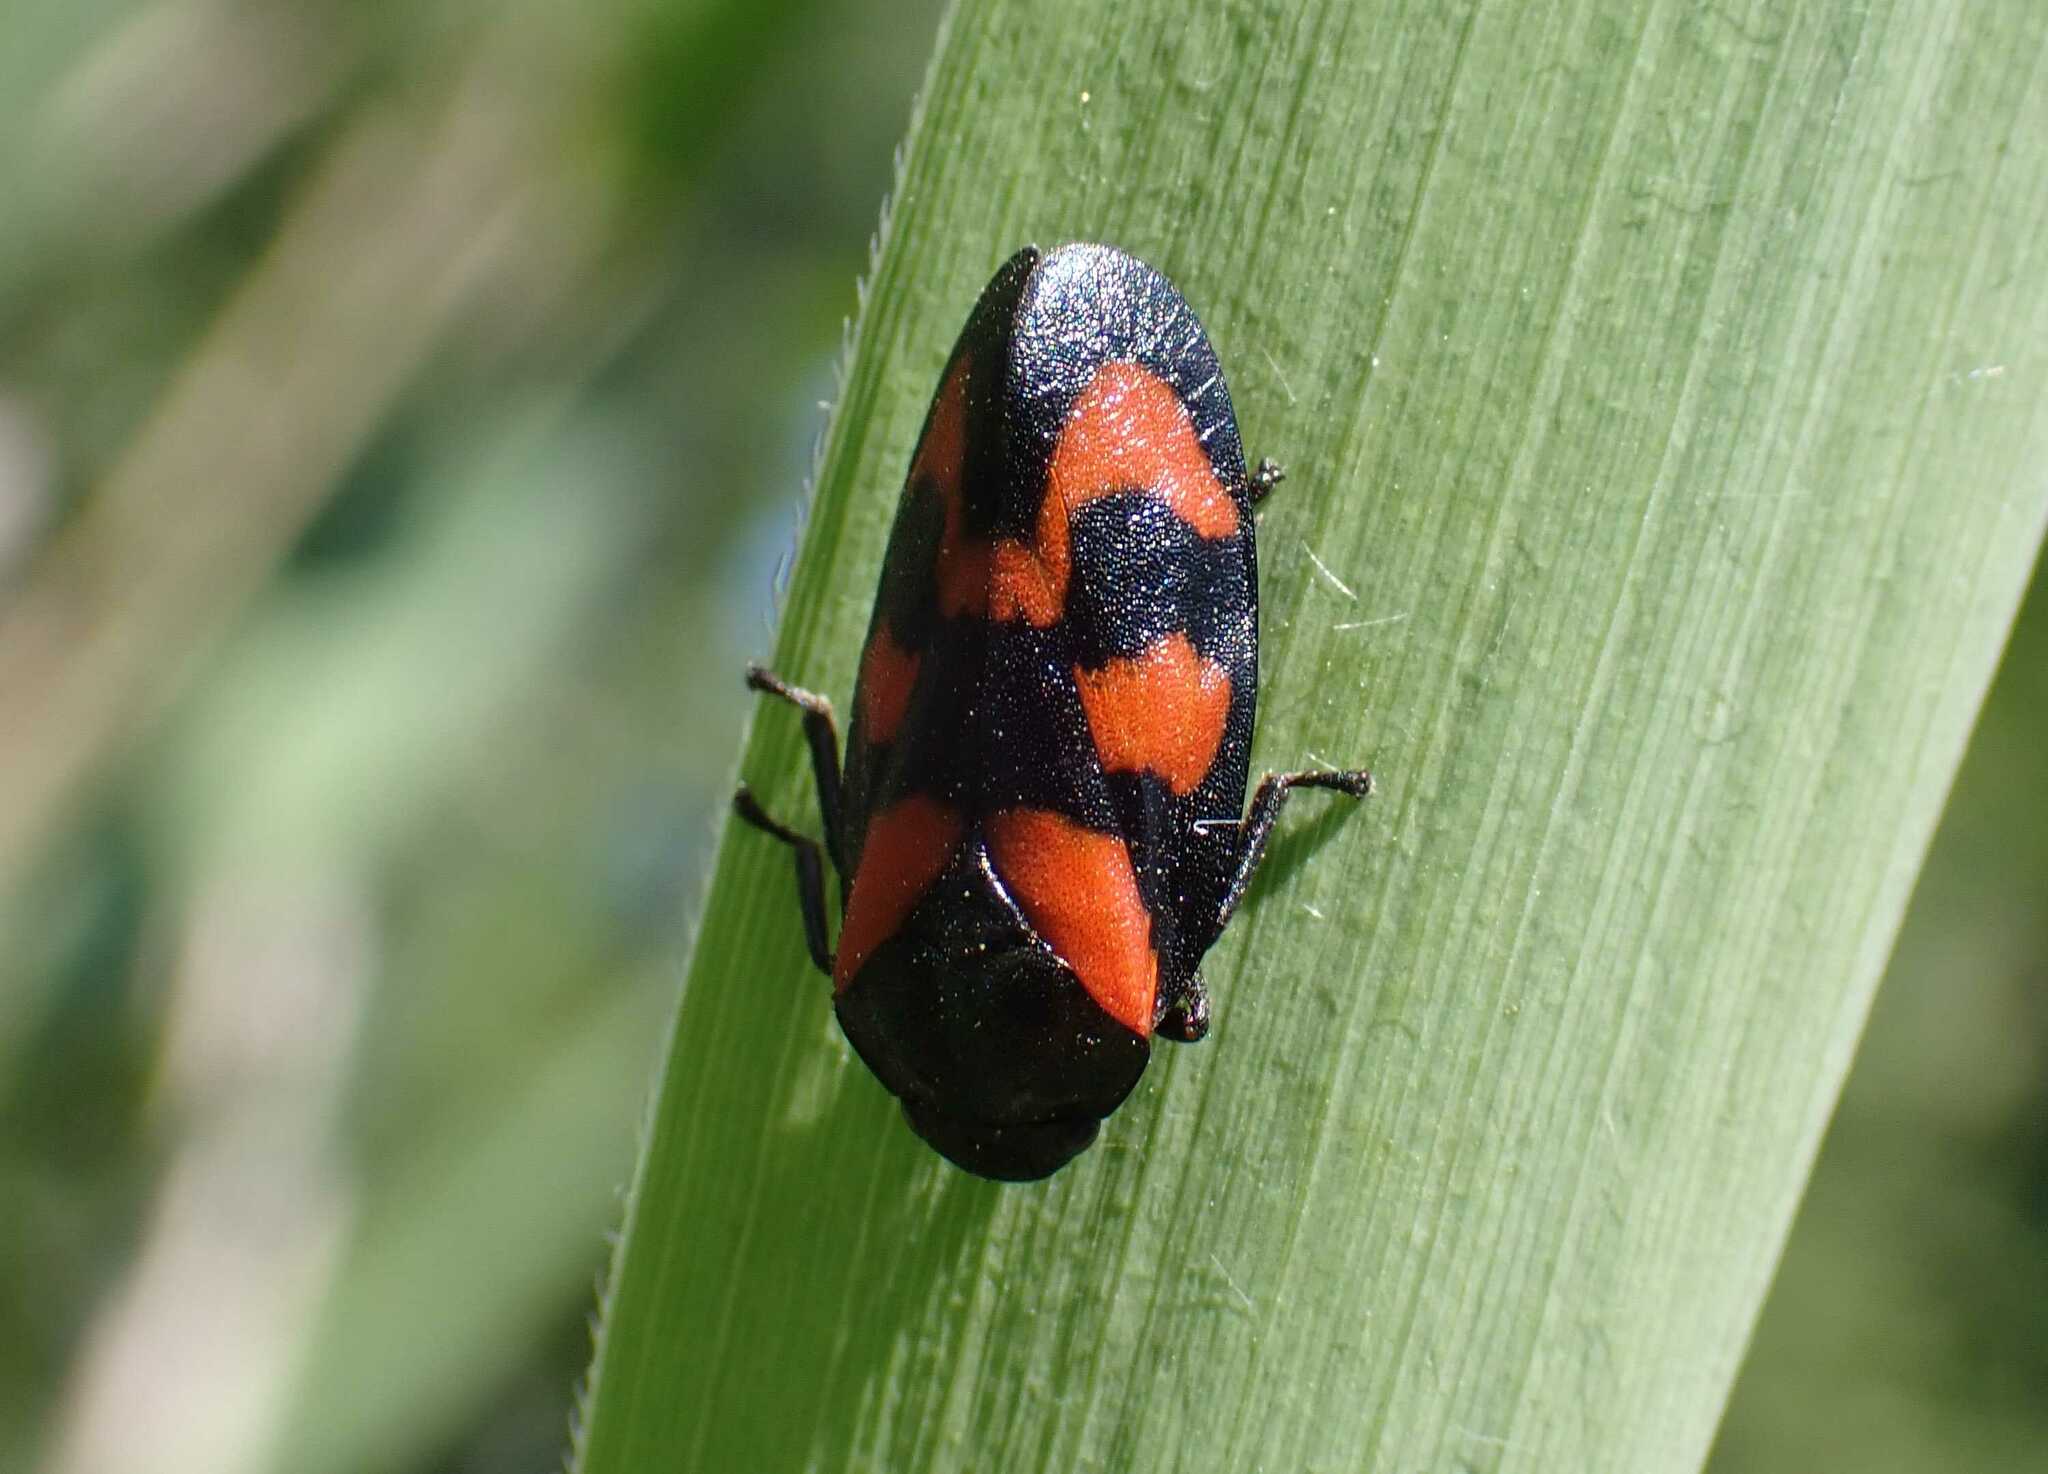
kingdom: Animalia
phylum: Arthropoda
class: Insecta
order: Hemiptera
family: Cercopidae
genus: Cercopis
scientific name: Cercopis vulnerata
